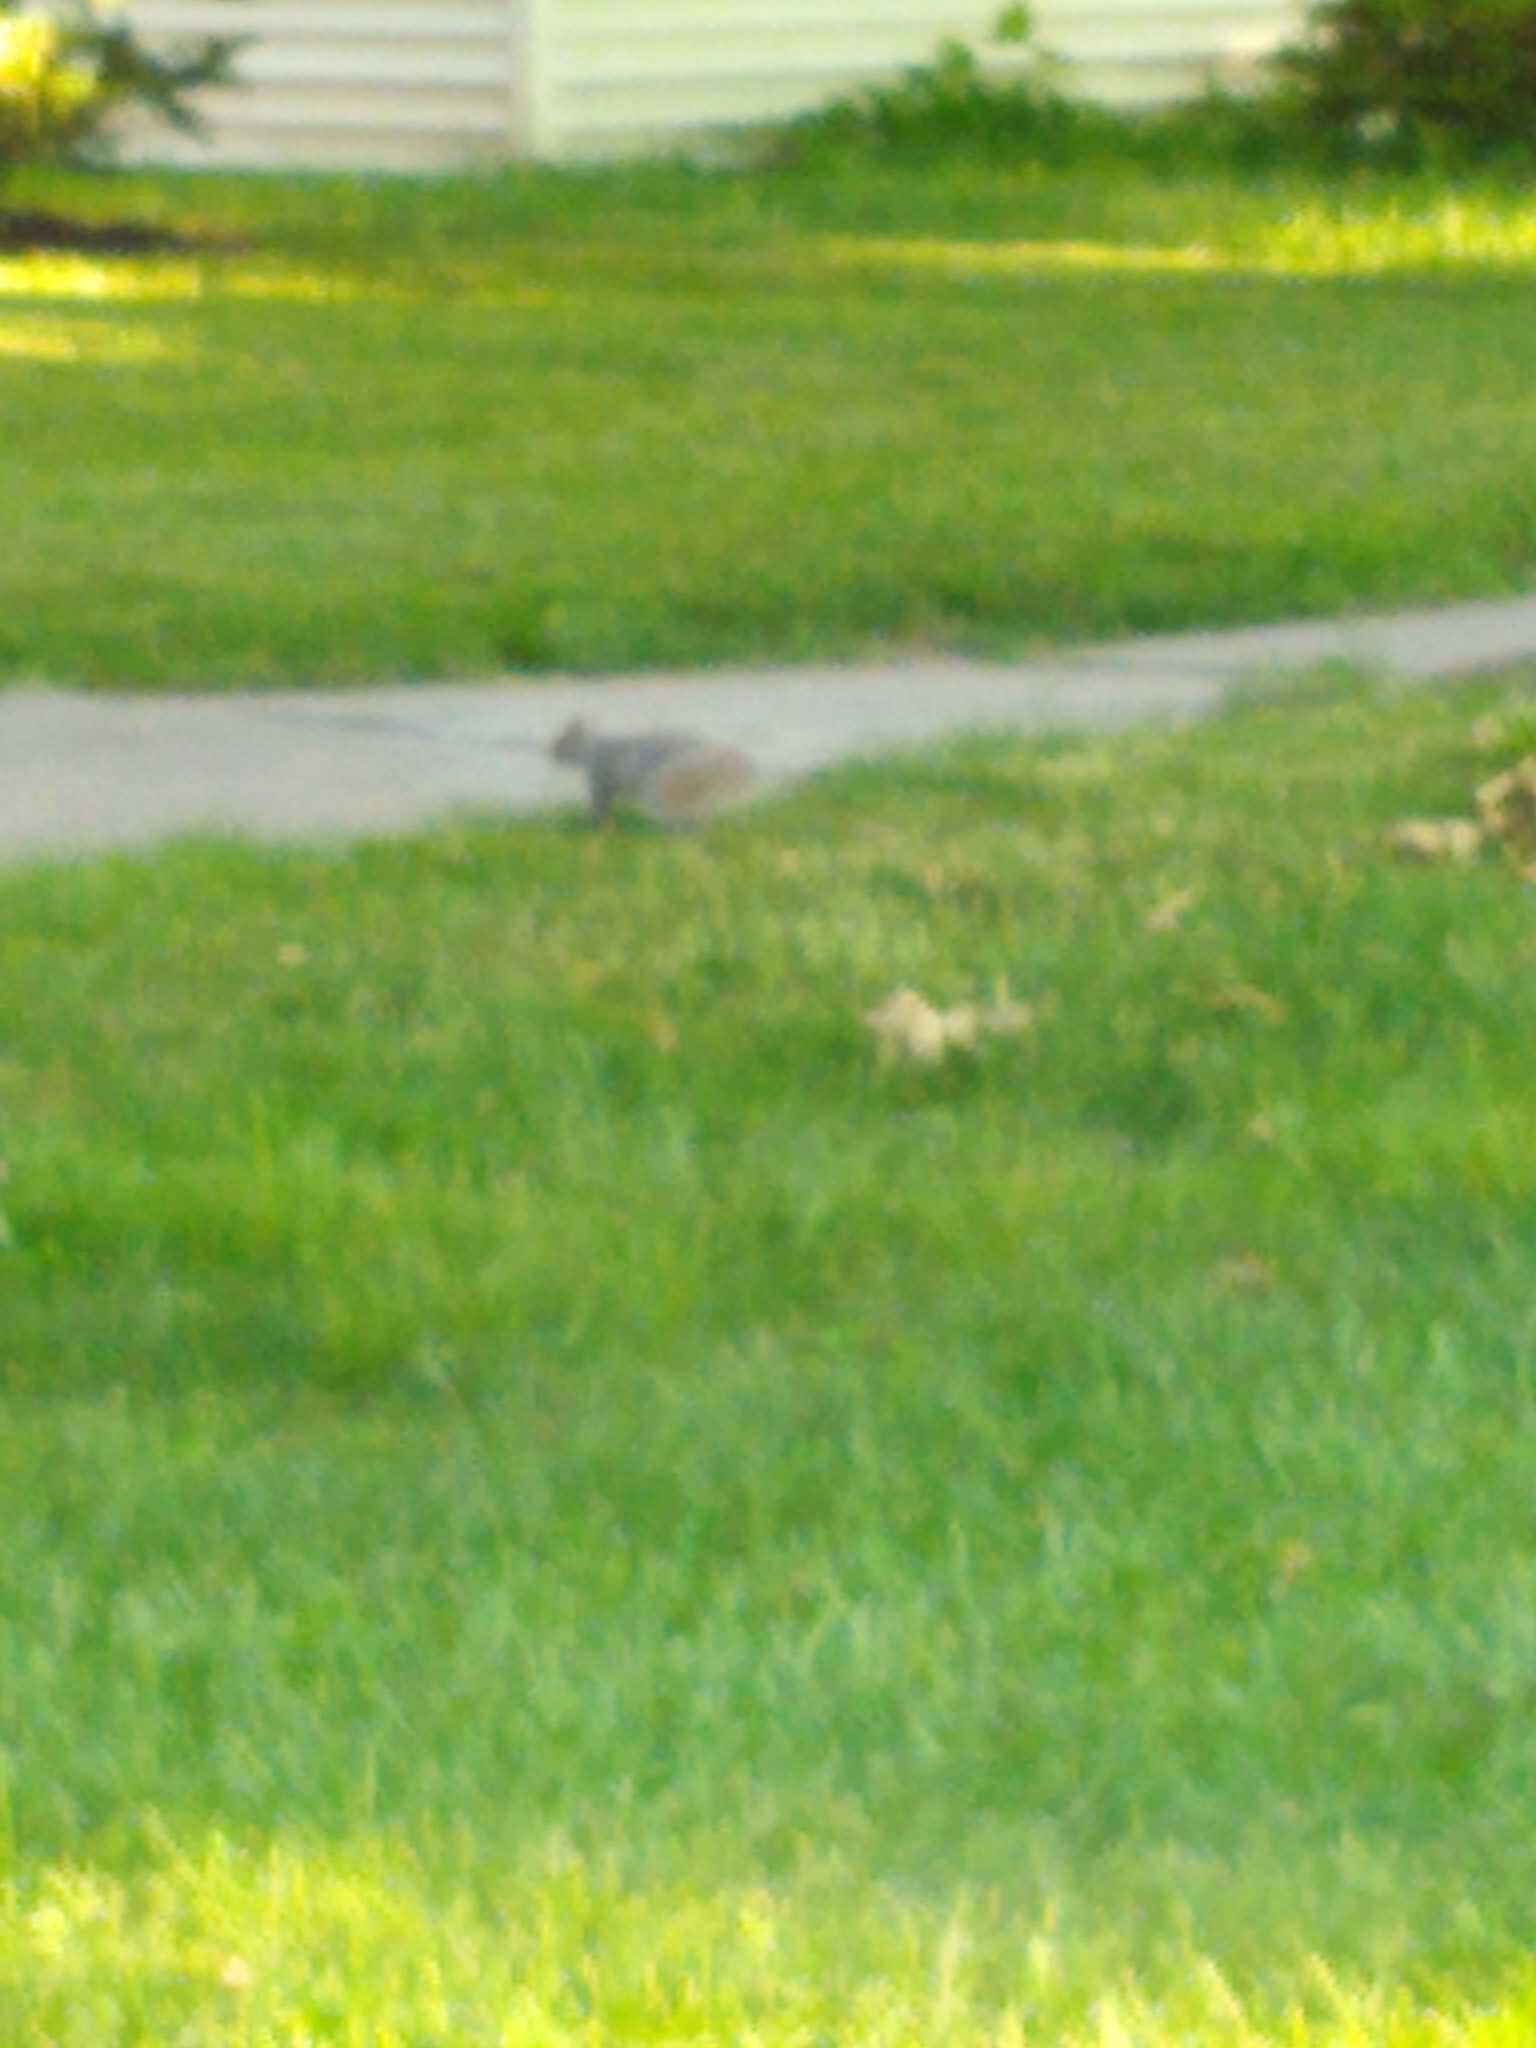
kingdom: Animalia
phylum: Chordata
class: Mammalia
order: Rodentia
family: Sciuridae
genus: Sciurus
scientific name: Sciurus carolinensis
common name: Eastern gray squirrel
